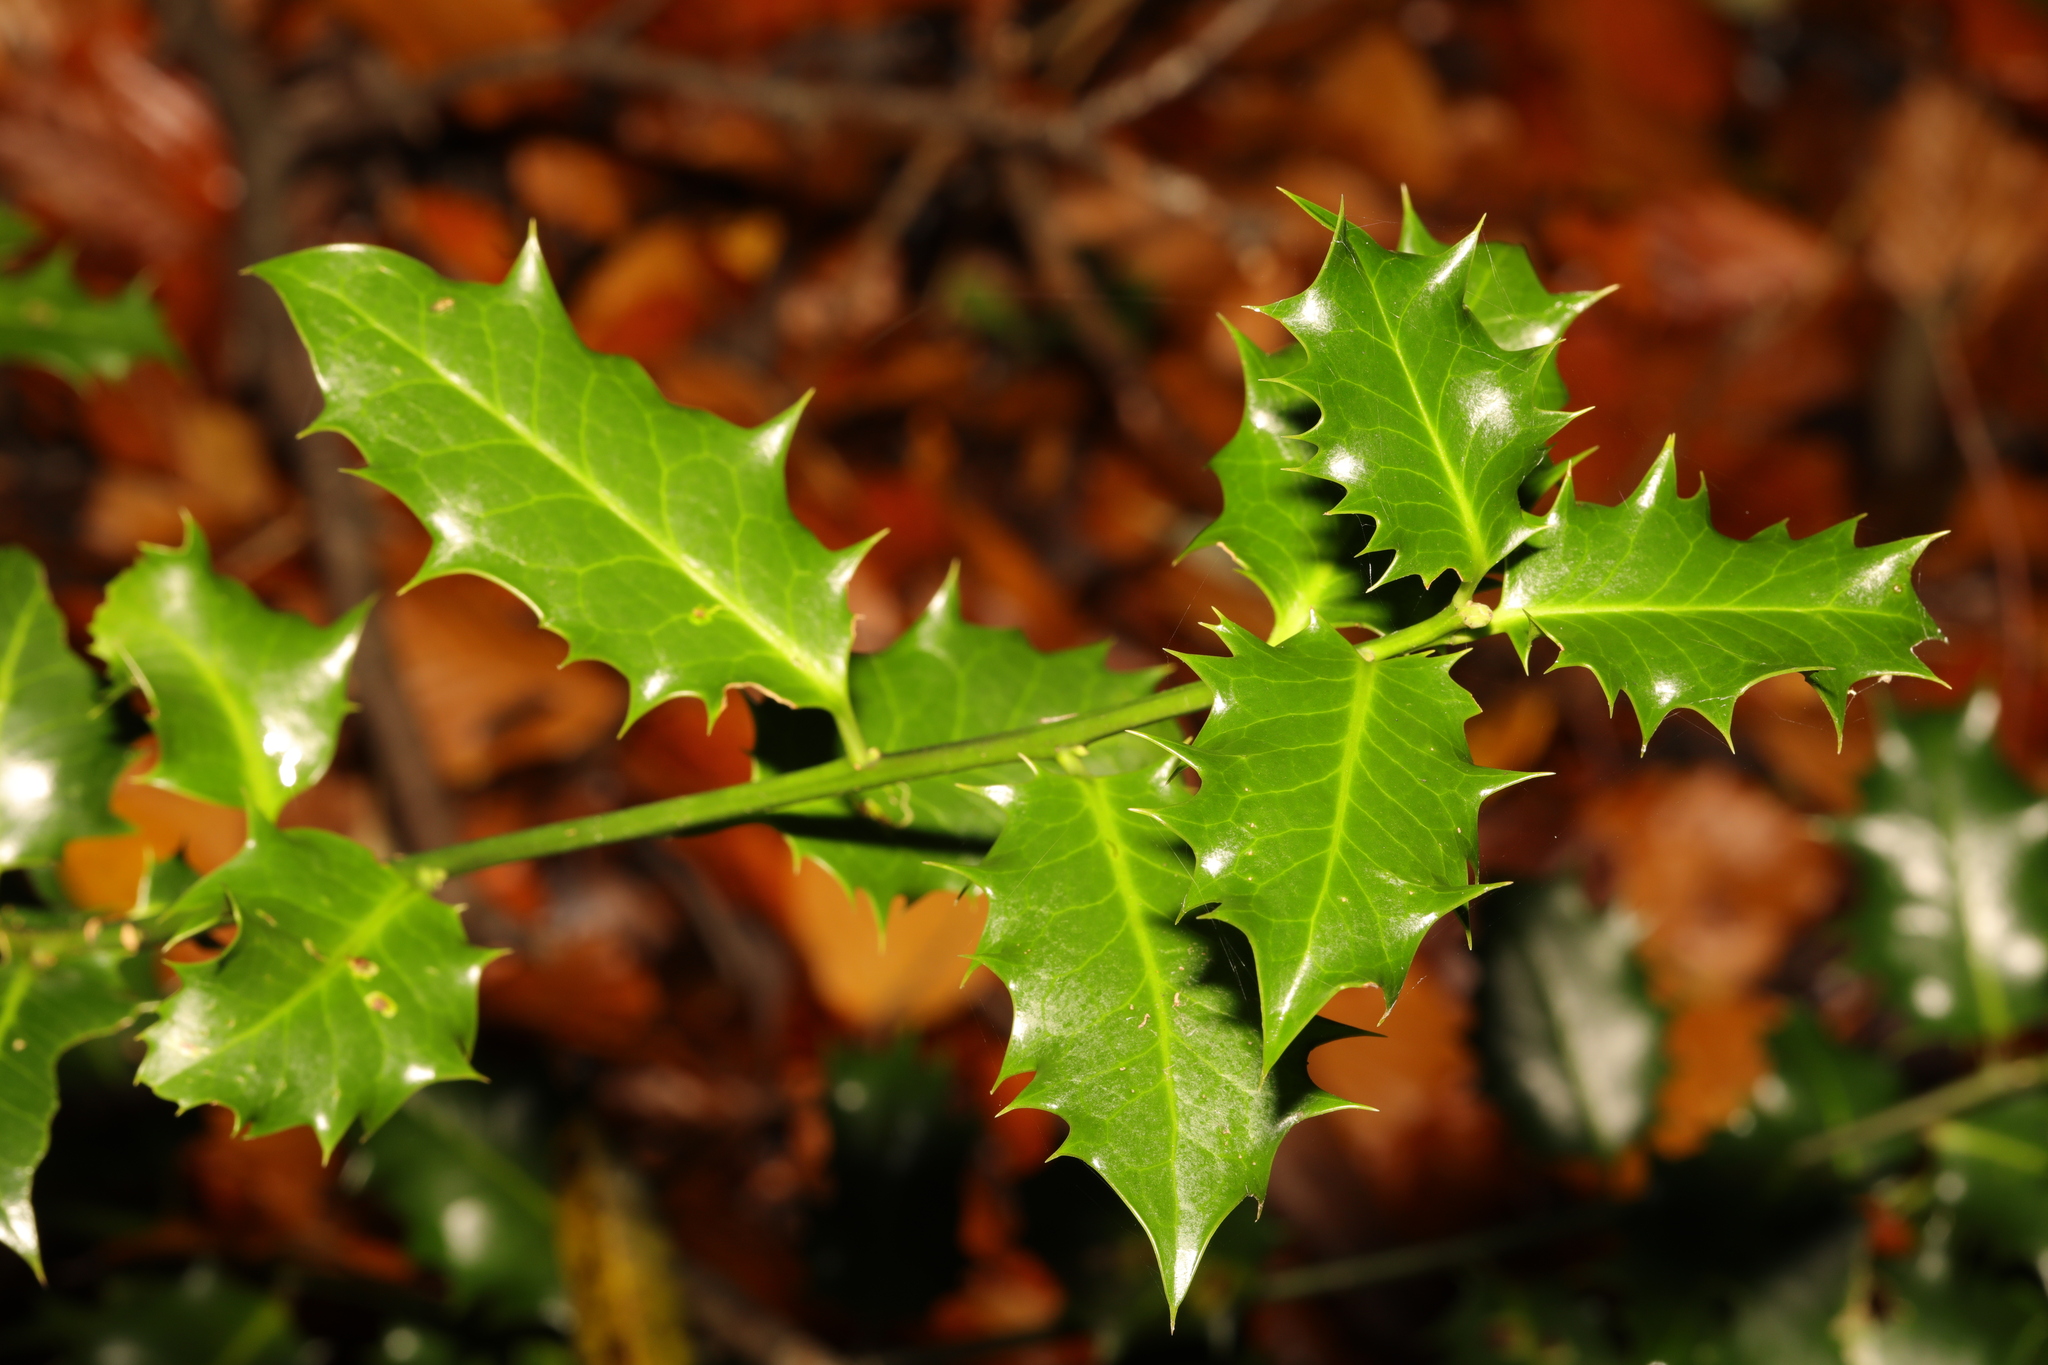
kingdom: Plantae
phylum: Tracheophyta
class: Magnoliopsida
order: Aquifoliales
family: Aquifoliaceae
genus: Ilex
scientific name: Ilex aquifolium
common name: English holly
